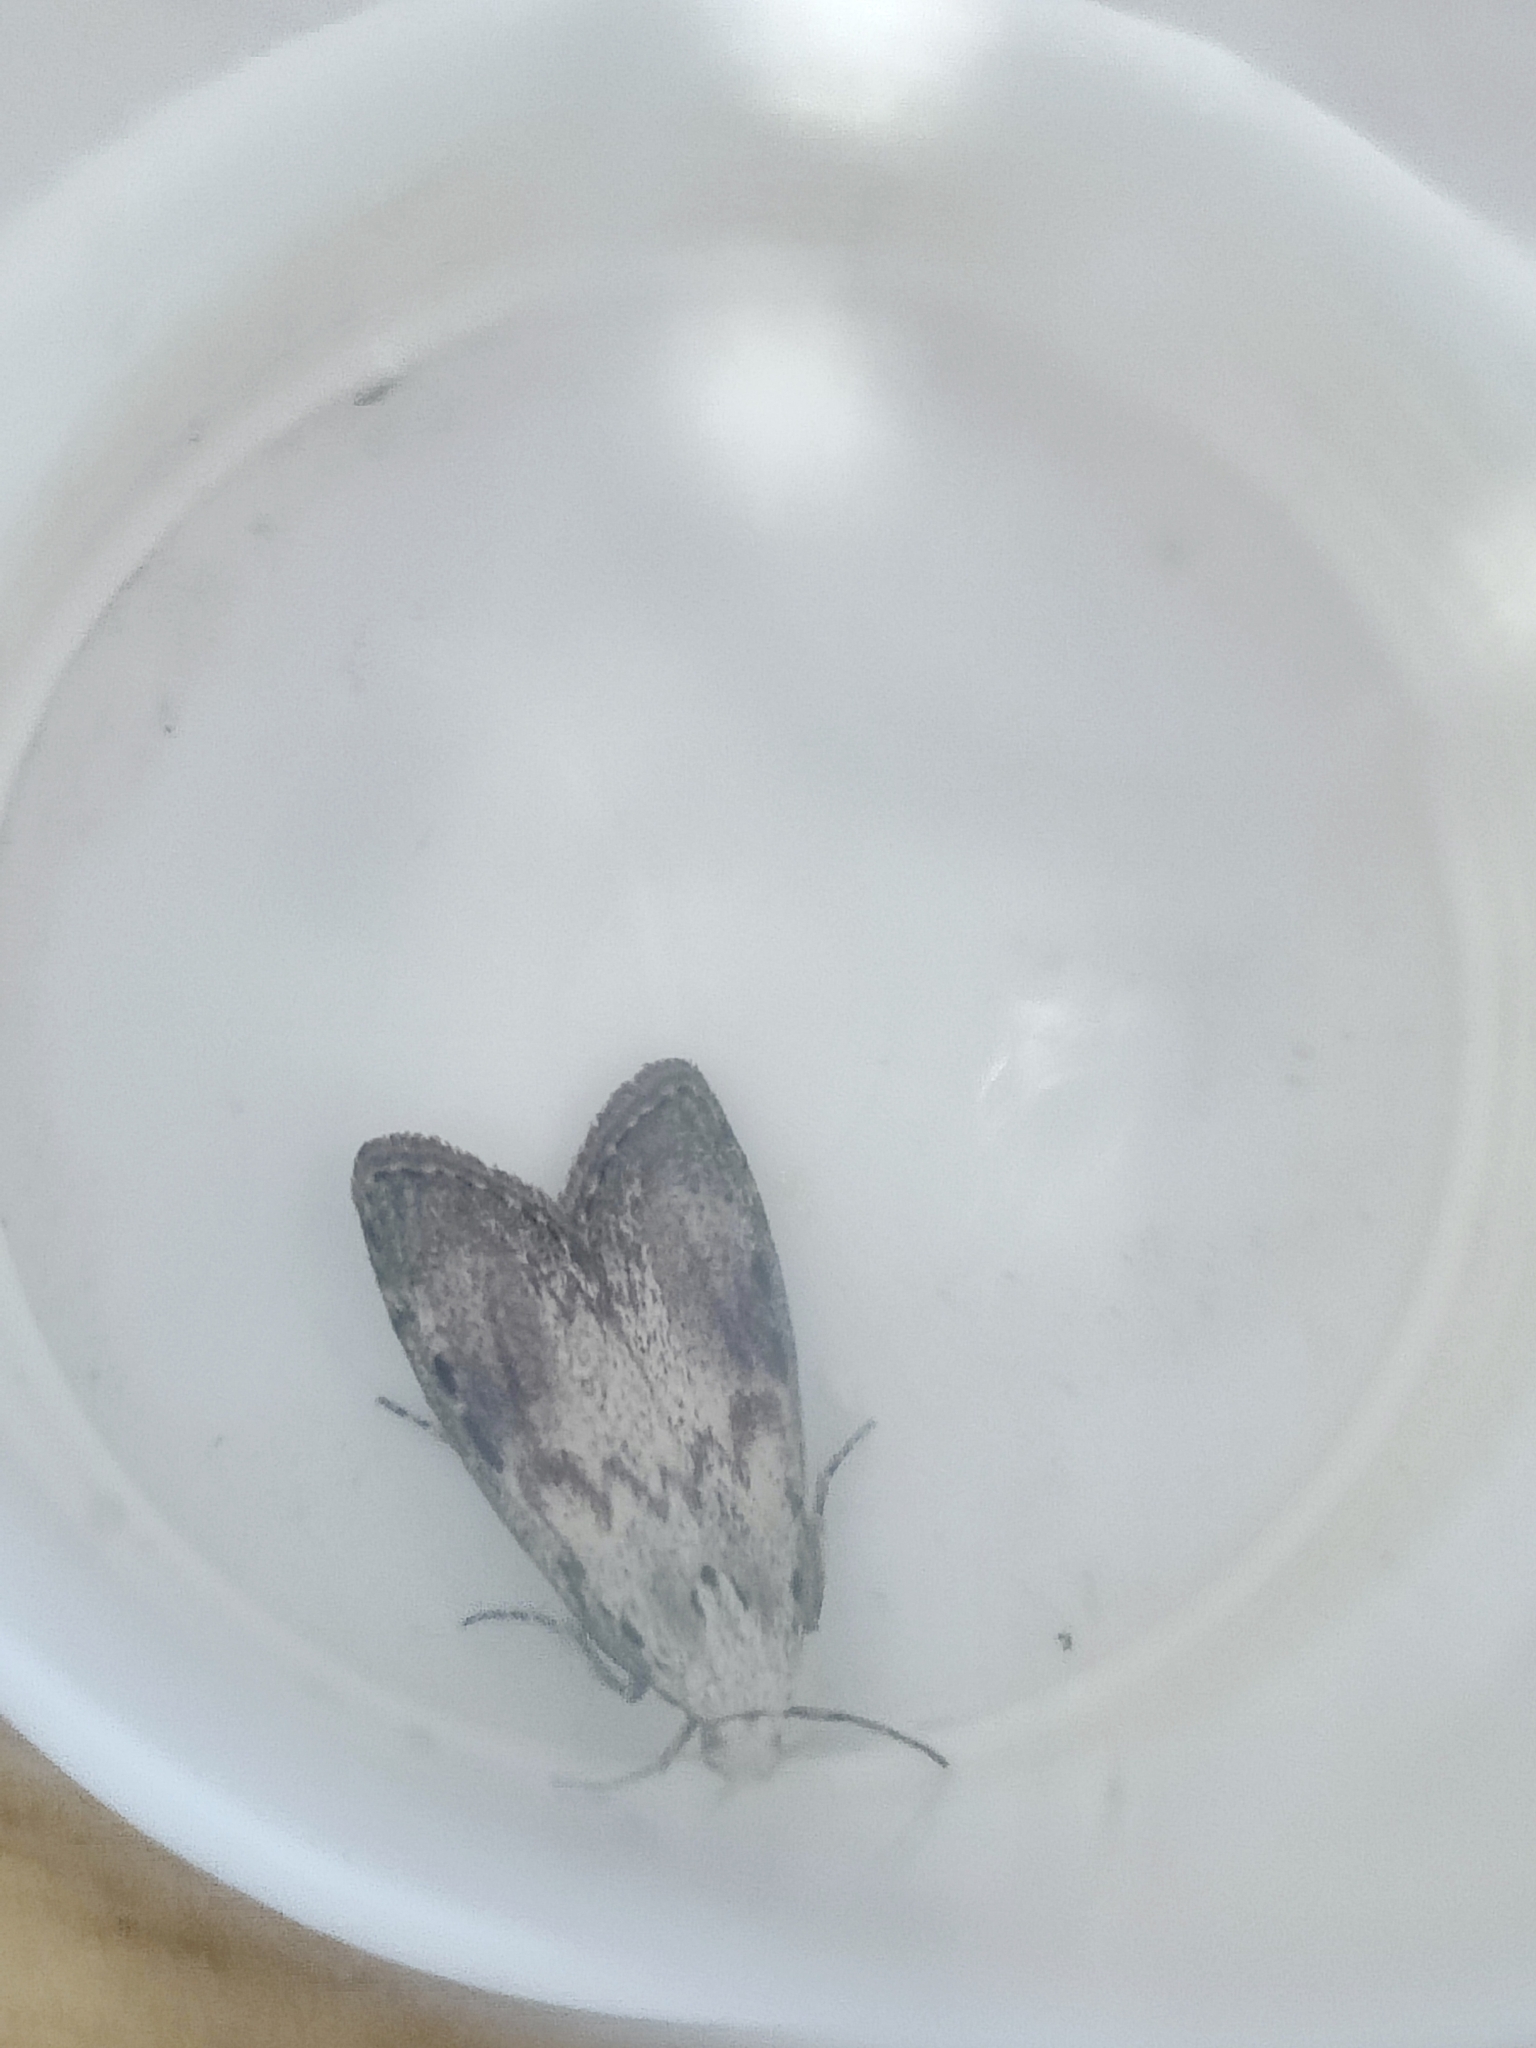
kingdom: Animalia
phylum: Arthropoda
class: Insecta
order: Lepidoptera
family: Pyralidae
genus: Aphomia
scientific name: Aphomia sociella
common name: Bee moth
